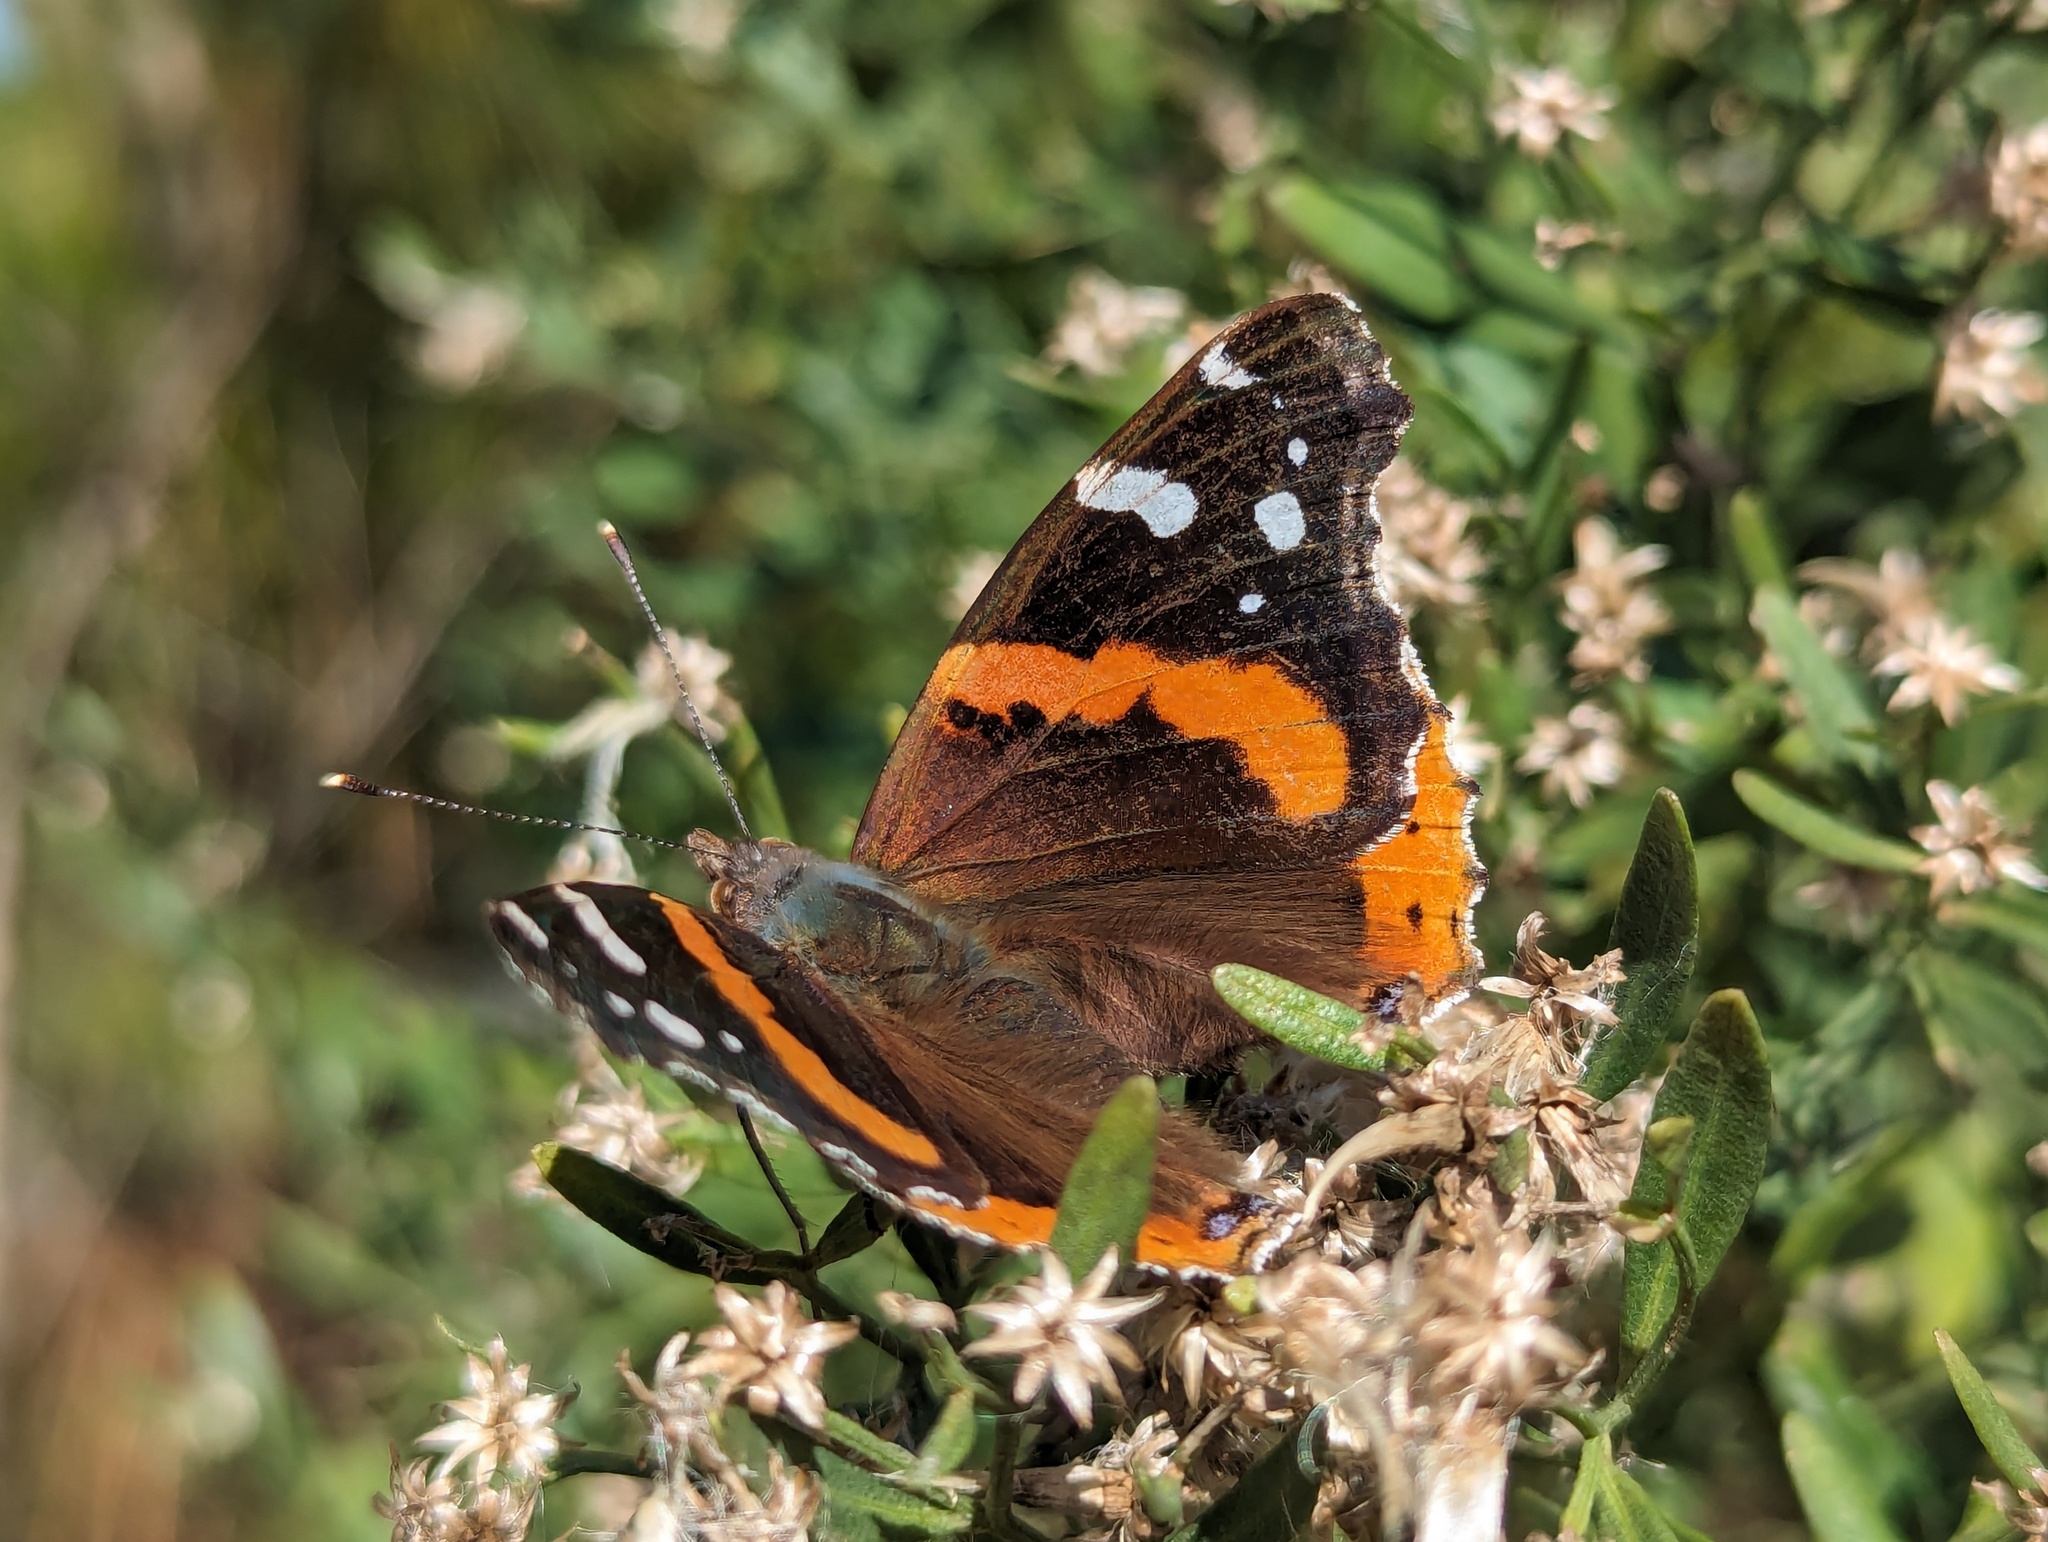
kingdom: Animalia
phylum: Arthropoda
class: Insecta
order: Lepidoptera
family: Nymphalidae
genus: Vanessa
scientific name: Vanessa atalanta
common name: Red admiral
